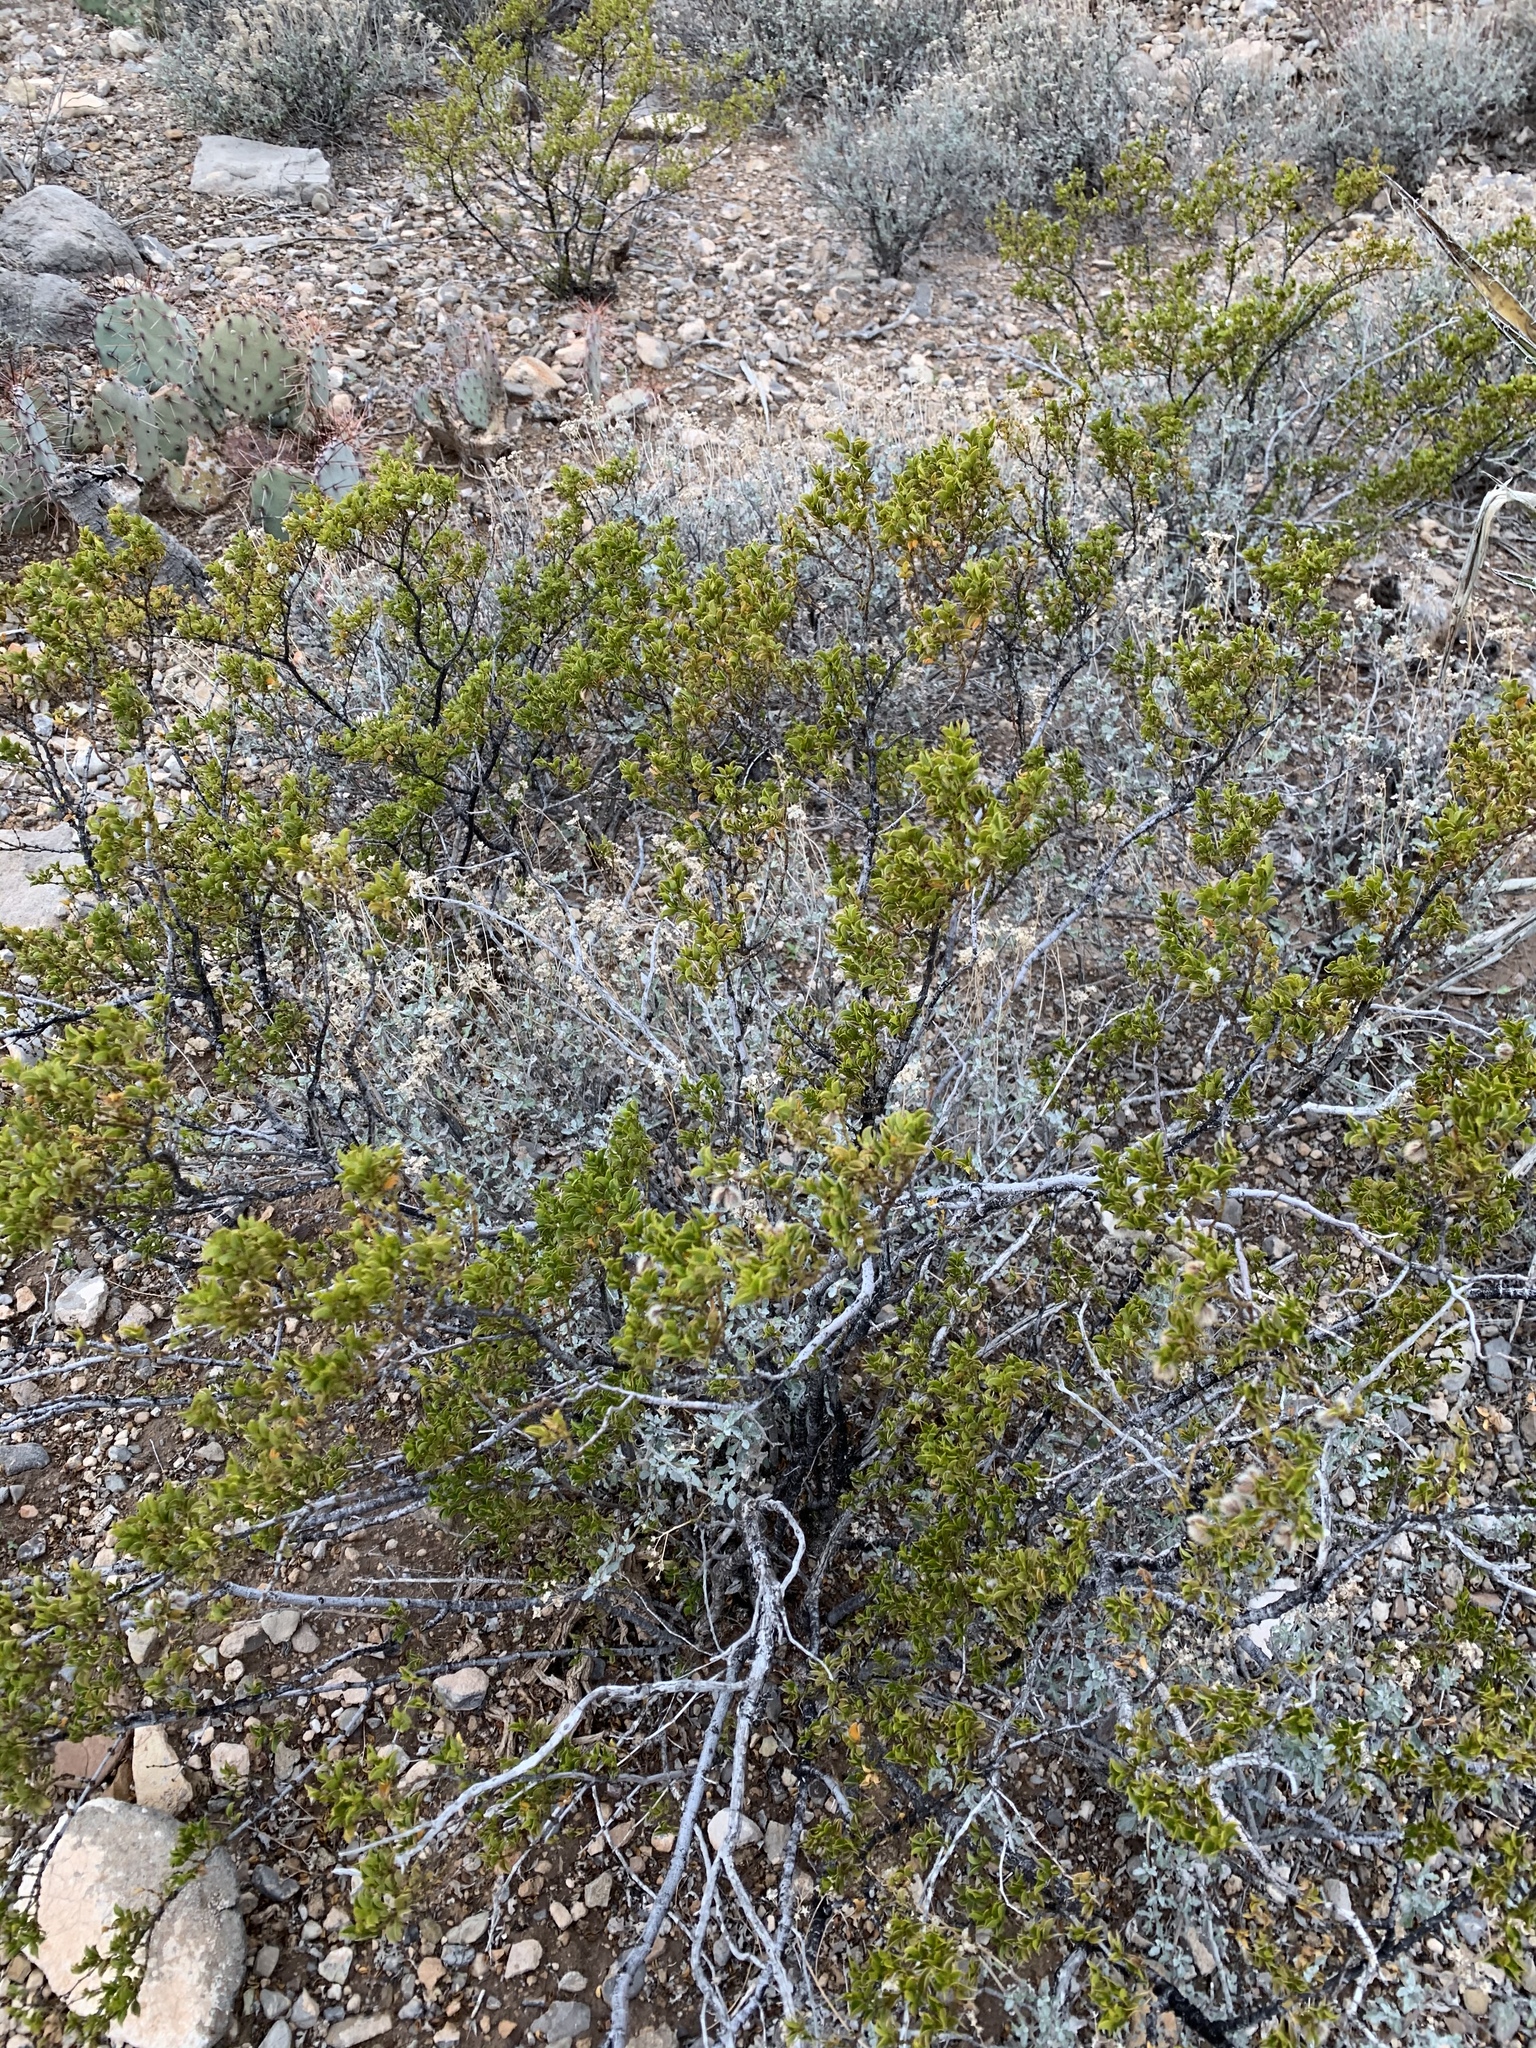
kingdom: Plantae
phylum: Tracheophyta
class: Magnoliopsida
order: Zygophyllales
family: Zygophyllaceae
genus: Larrea
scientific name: Larrea tridentata
